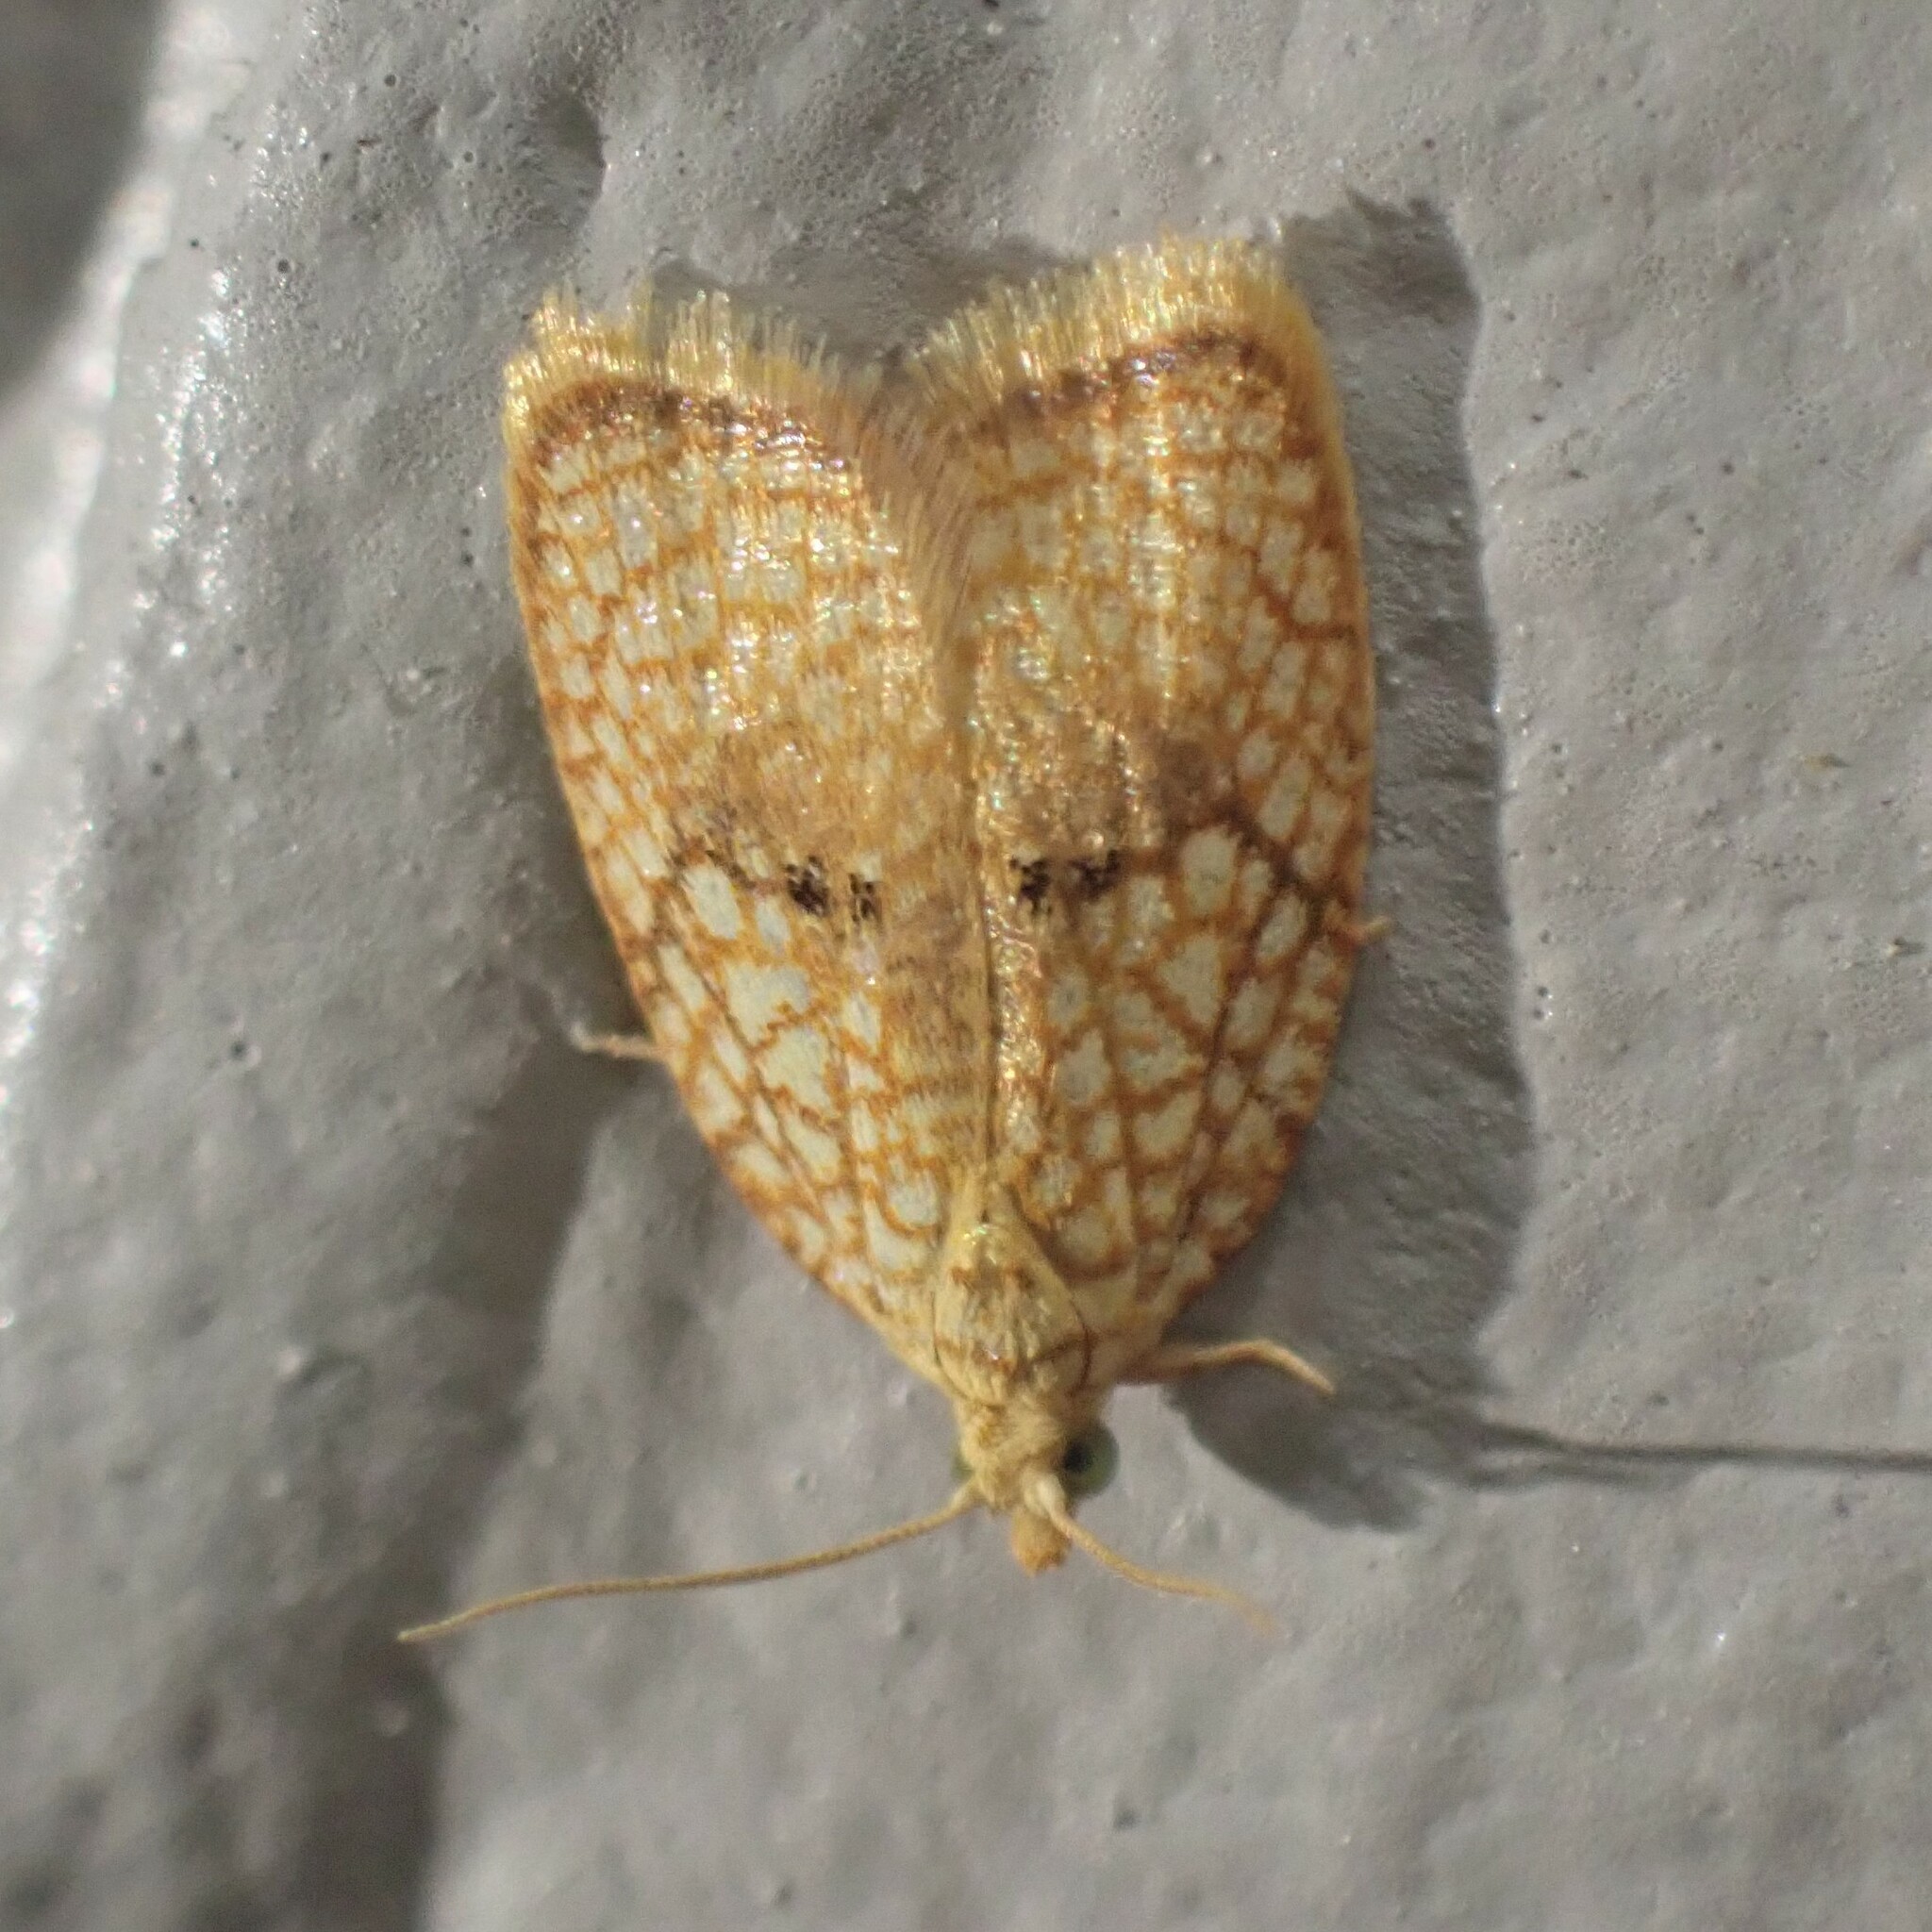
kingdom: Animalia
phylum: Arthropoda
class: Insecta
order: Lepidoptera
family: Tortricidae
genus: Acleris
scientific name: Acleris forsskaleana
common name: Maple button
